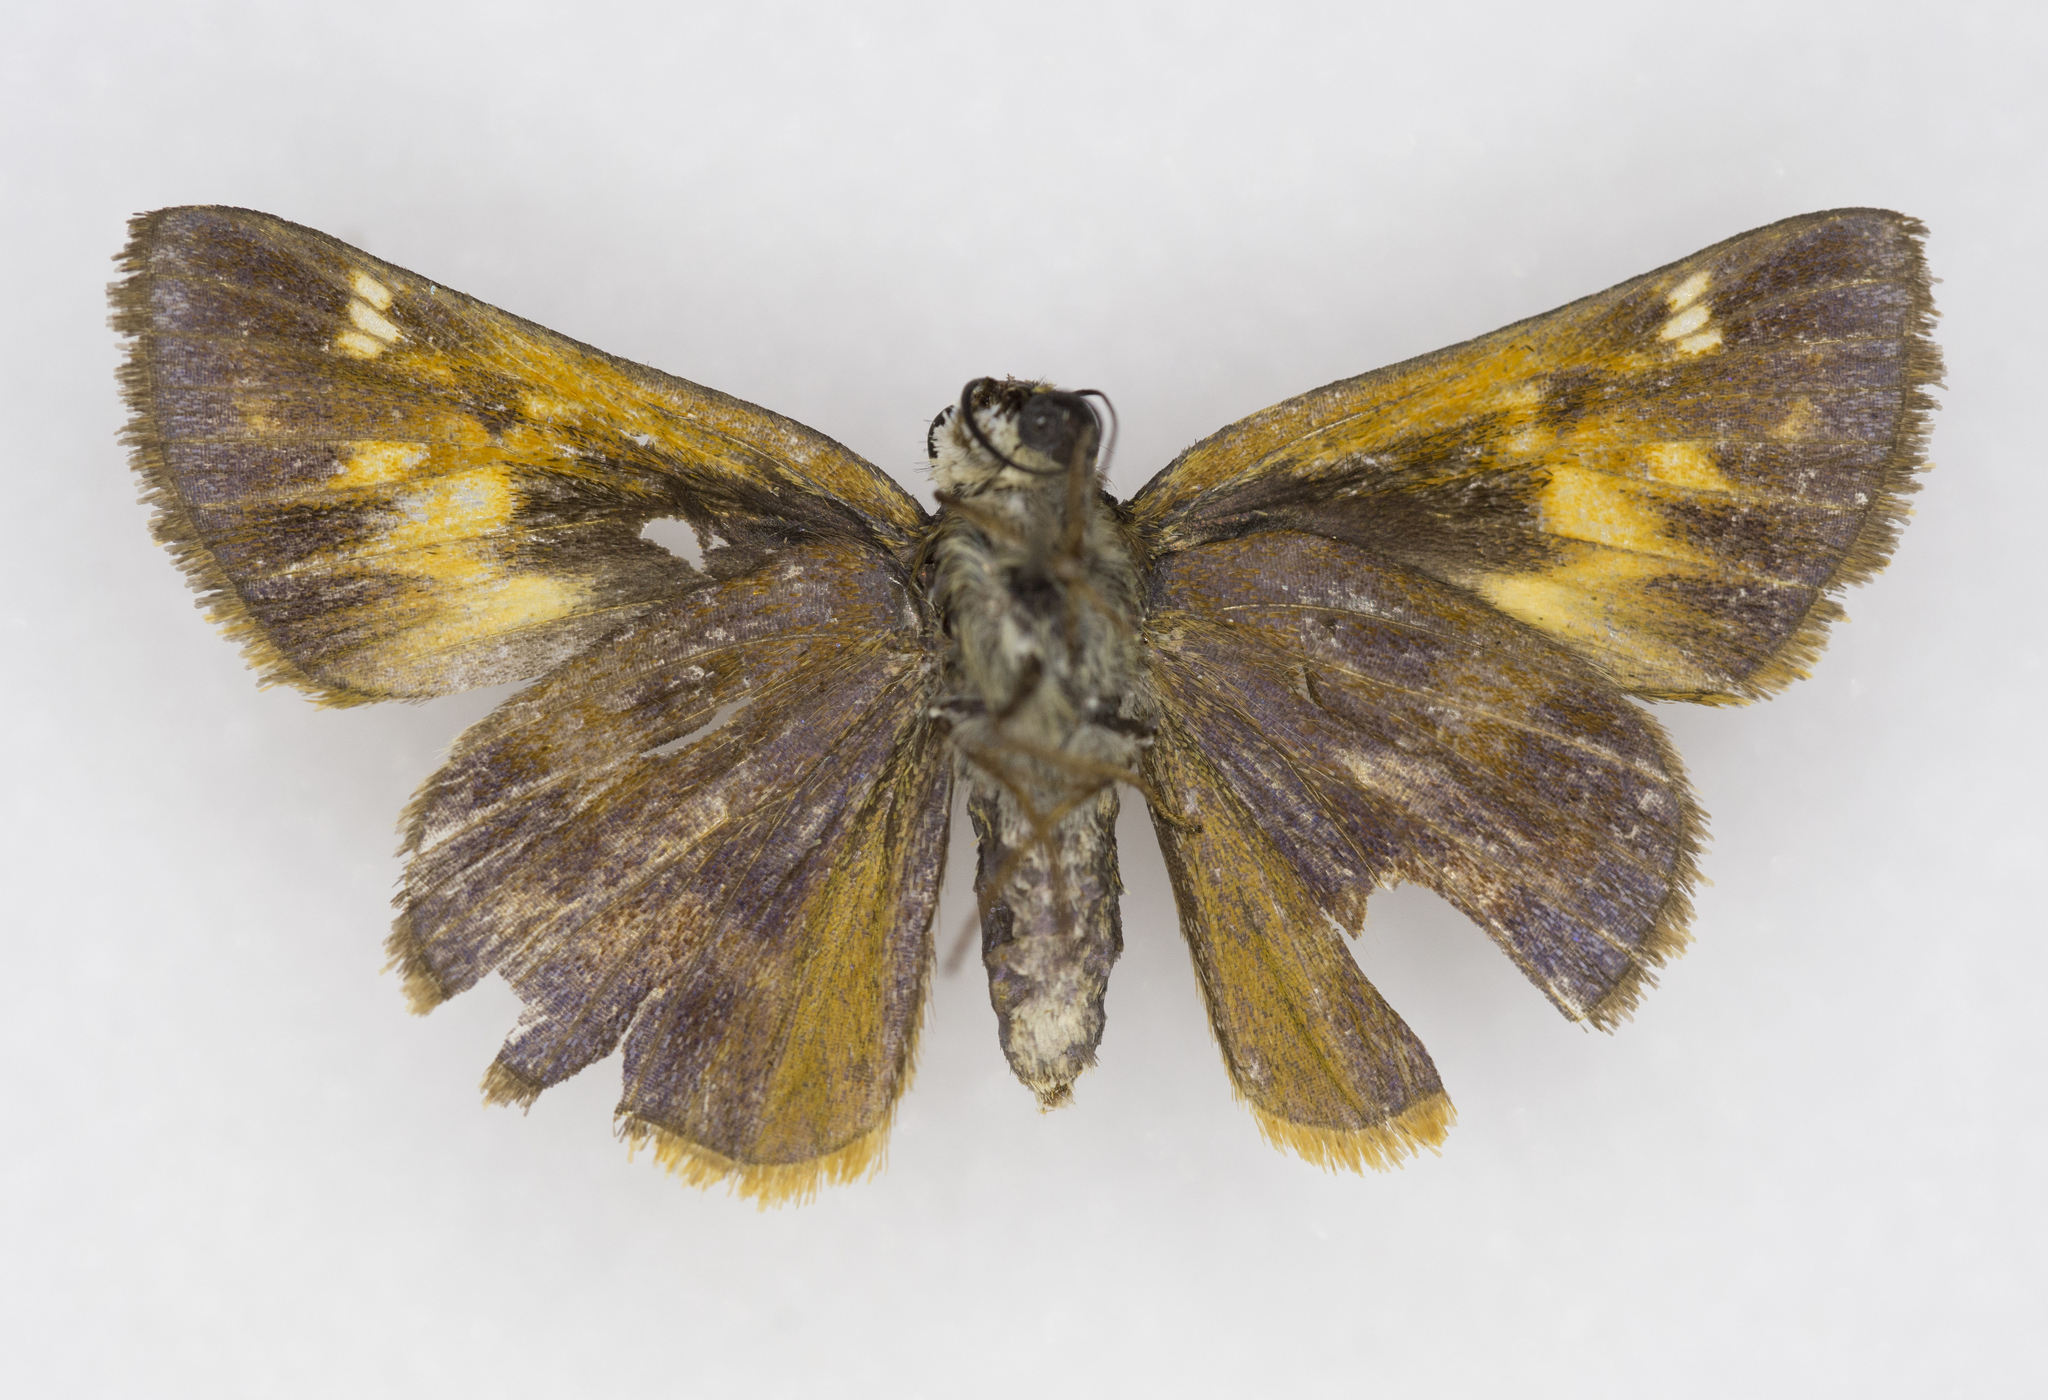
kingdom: Animalia
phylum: Arthropoda
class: Insecta
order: Lepidoptera
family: Hesperiidae
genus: Lon
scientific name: Lon taxiles
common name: Taxiles skipper
